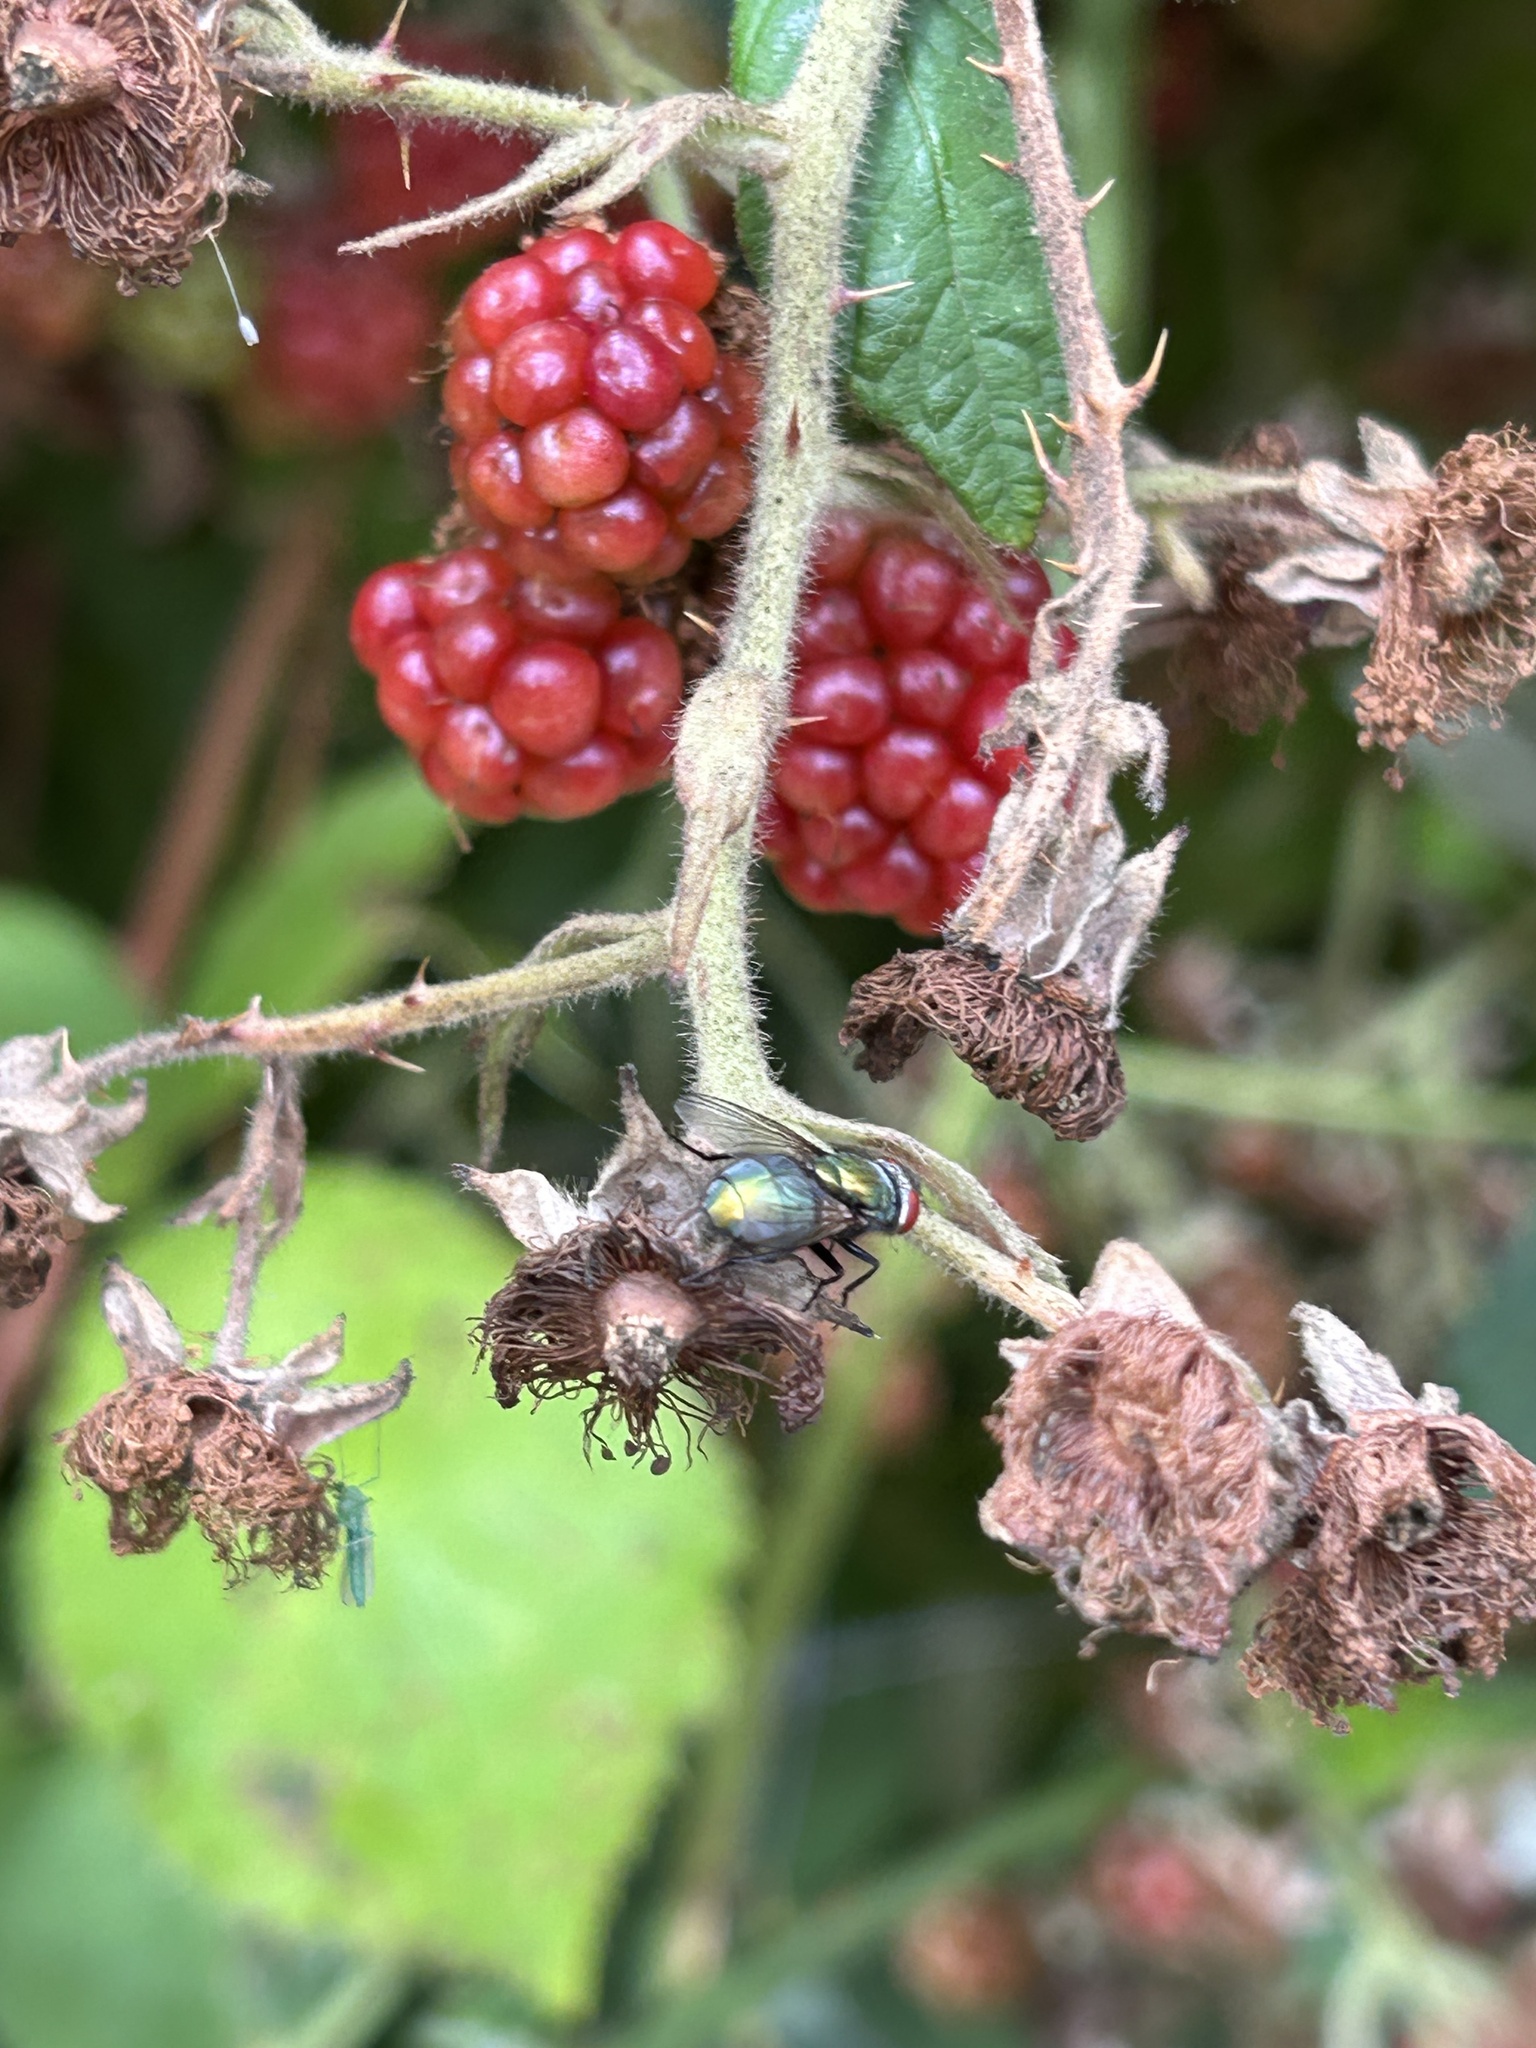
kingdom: Animalia
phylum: Arthropoda
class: Insecta
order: Diptera
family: Calliphoridae
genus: Lucilia
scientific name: Lucilia sericata
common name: Blow fly
